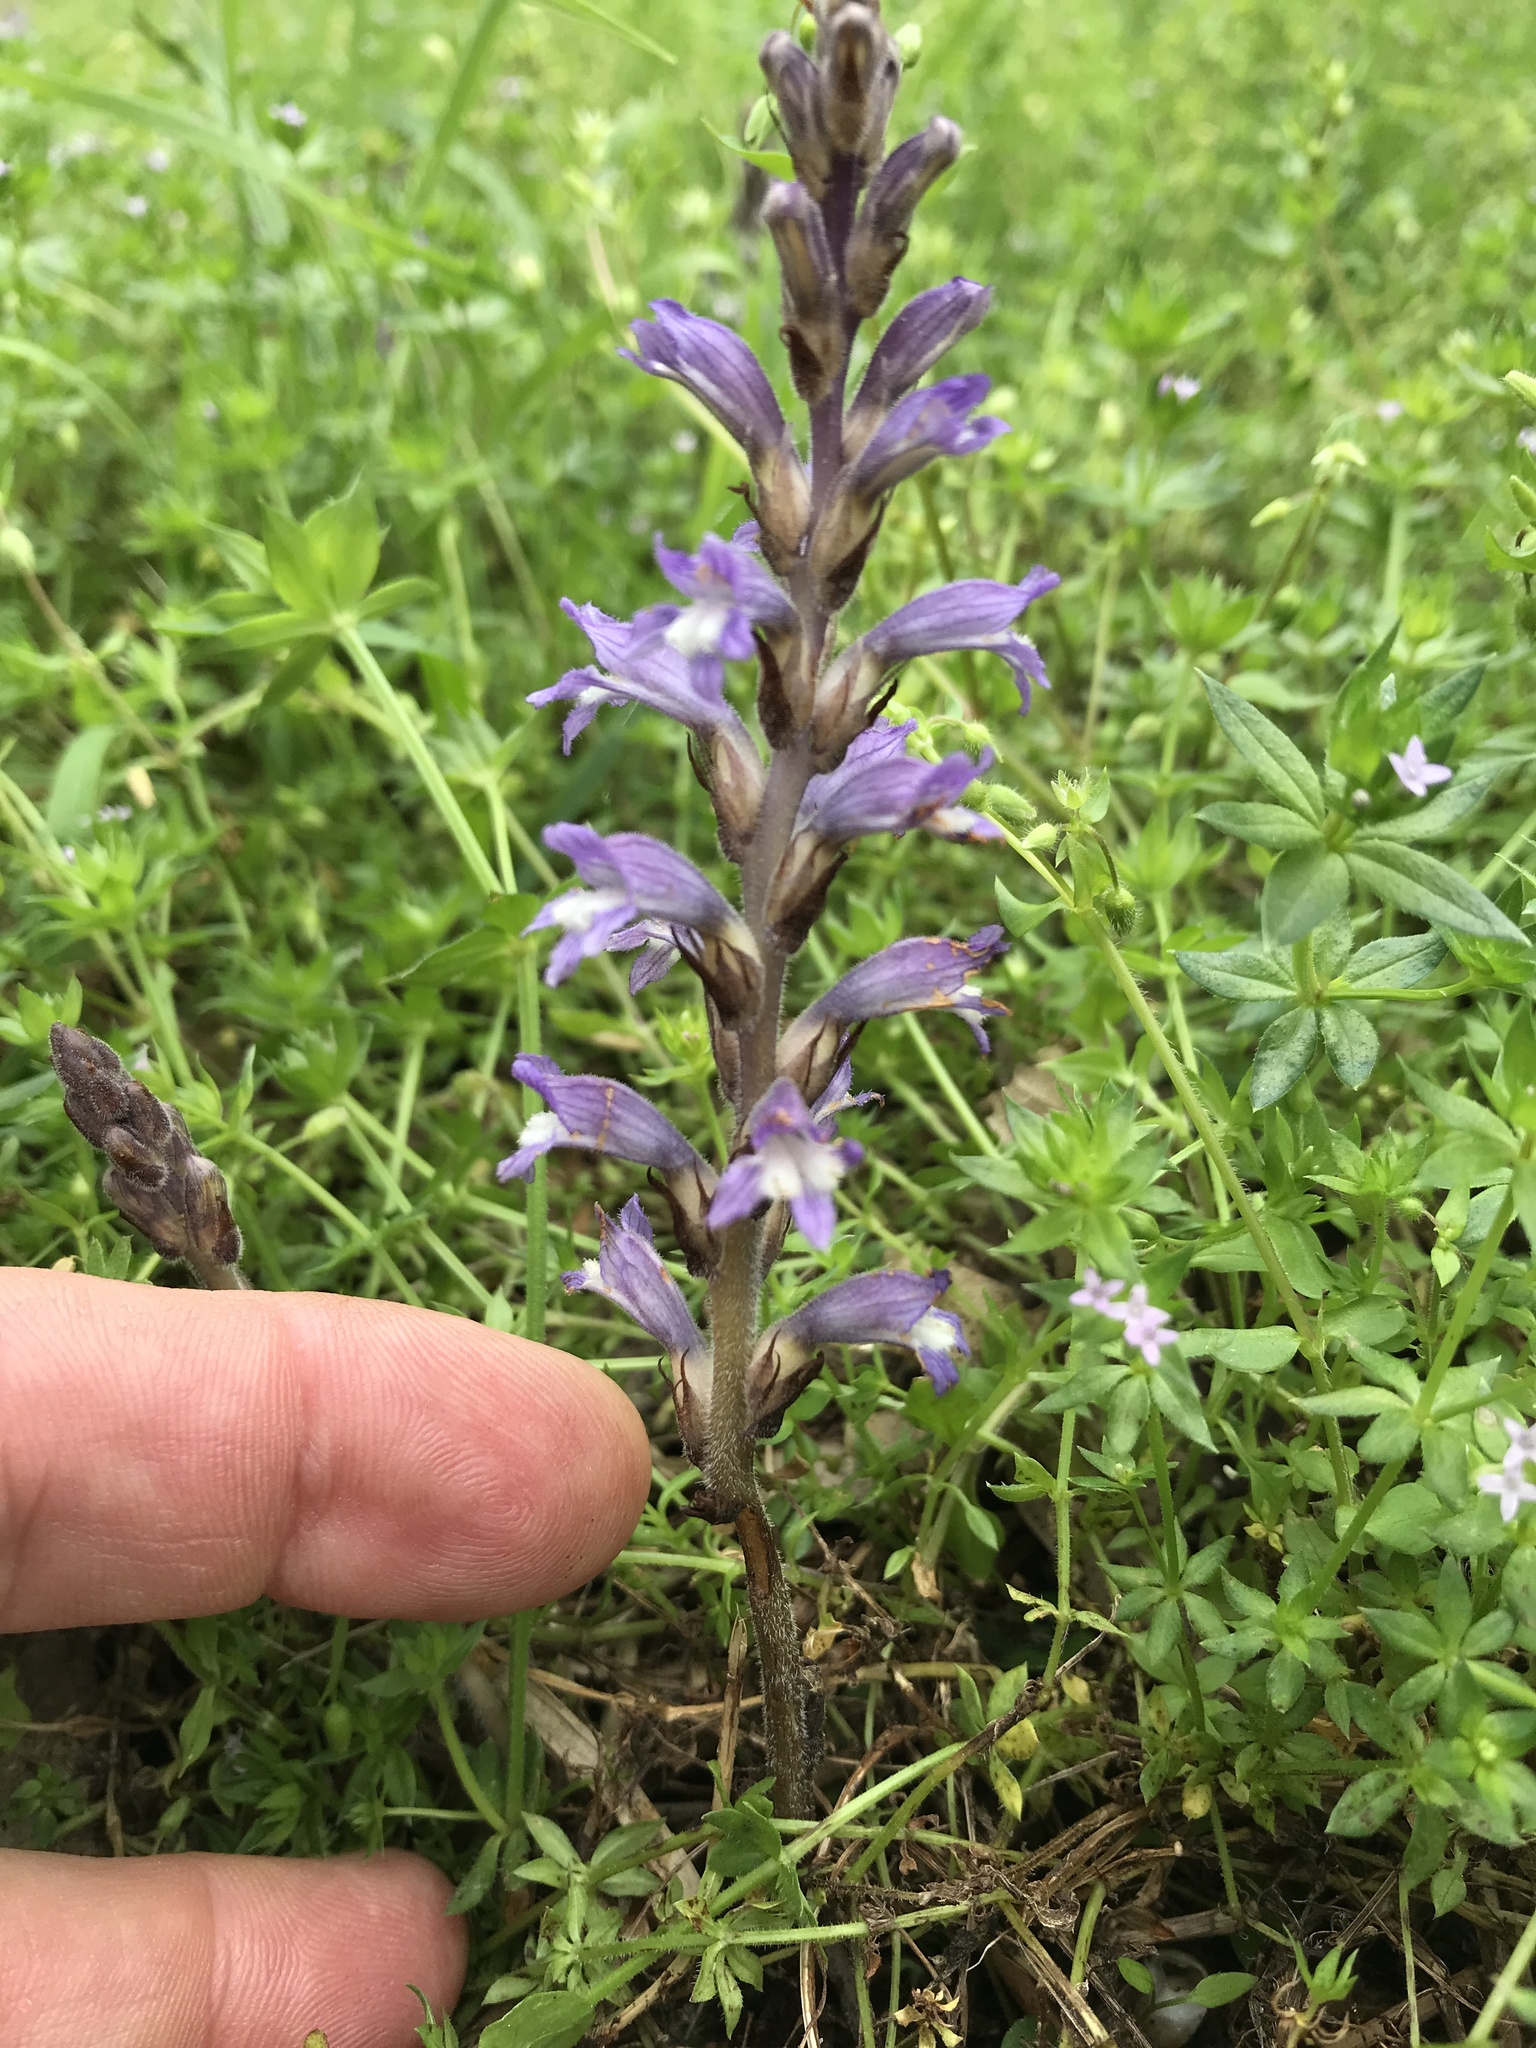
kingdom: Plantae
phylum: Tracheophyta
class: Magnoliopsida
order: Lamiales
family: Orobanchaceae
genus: Phelipanche
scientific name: Phelipanche mutelii
